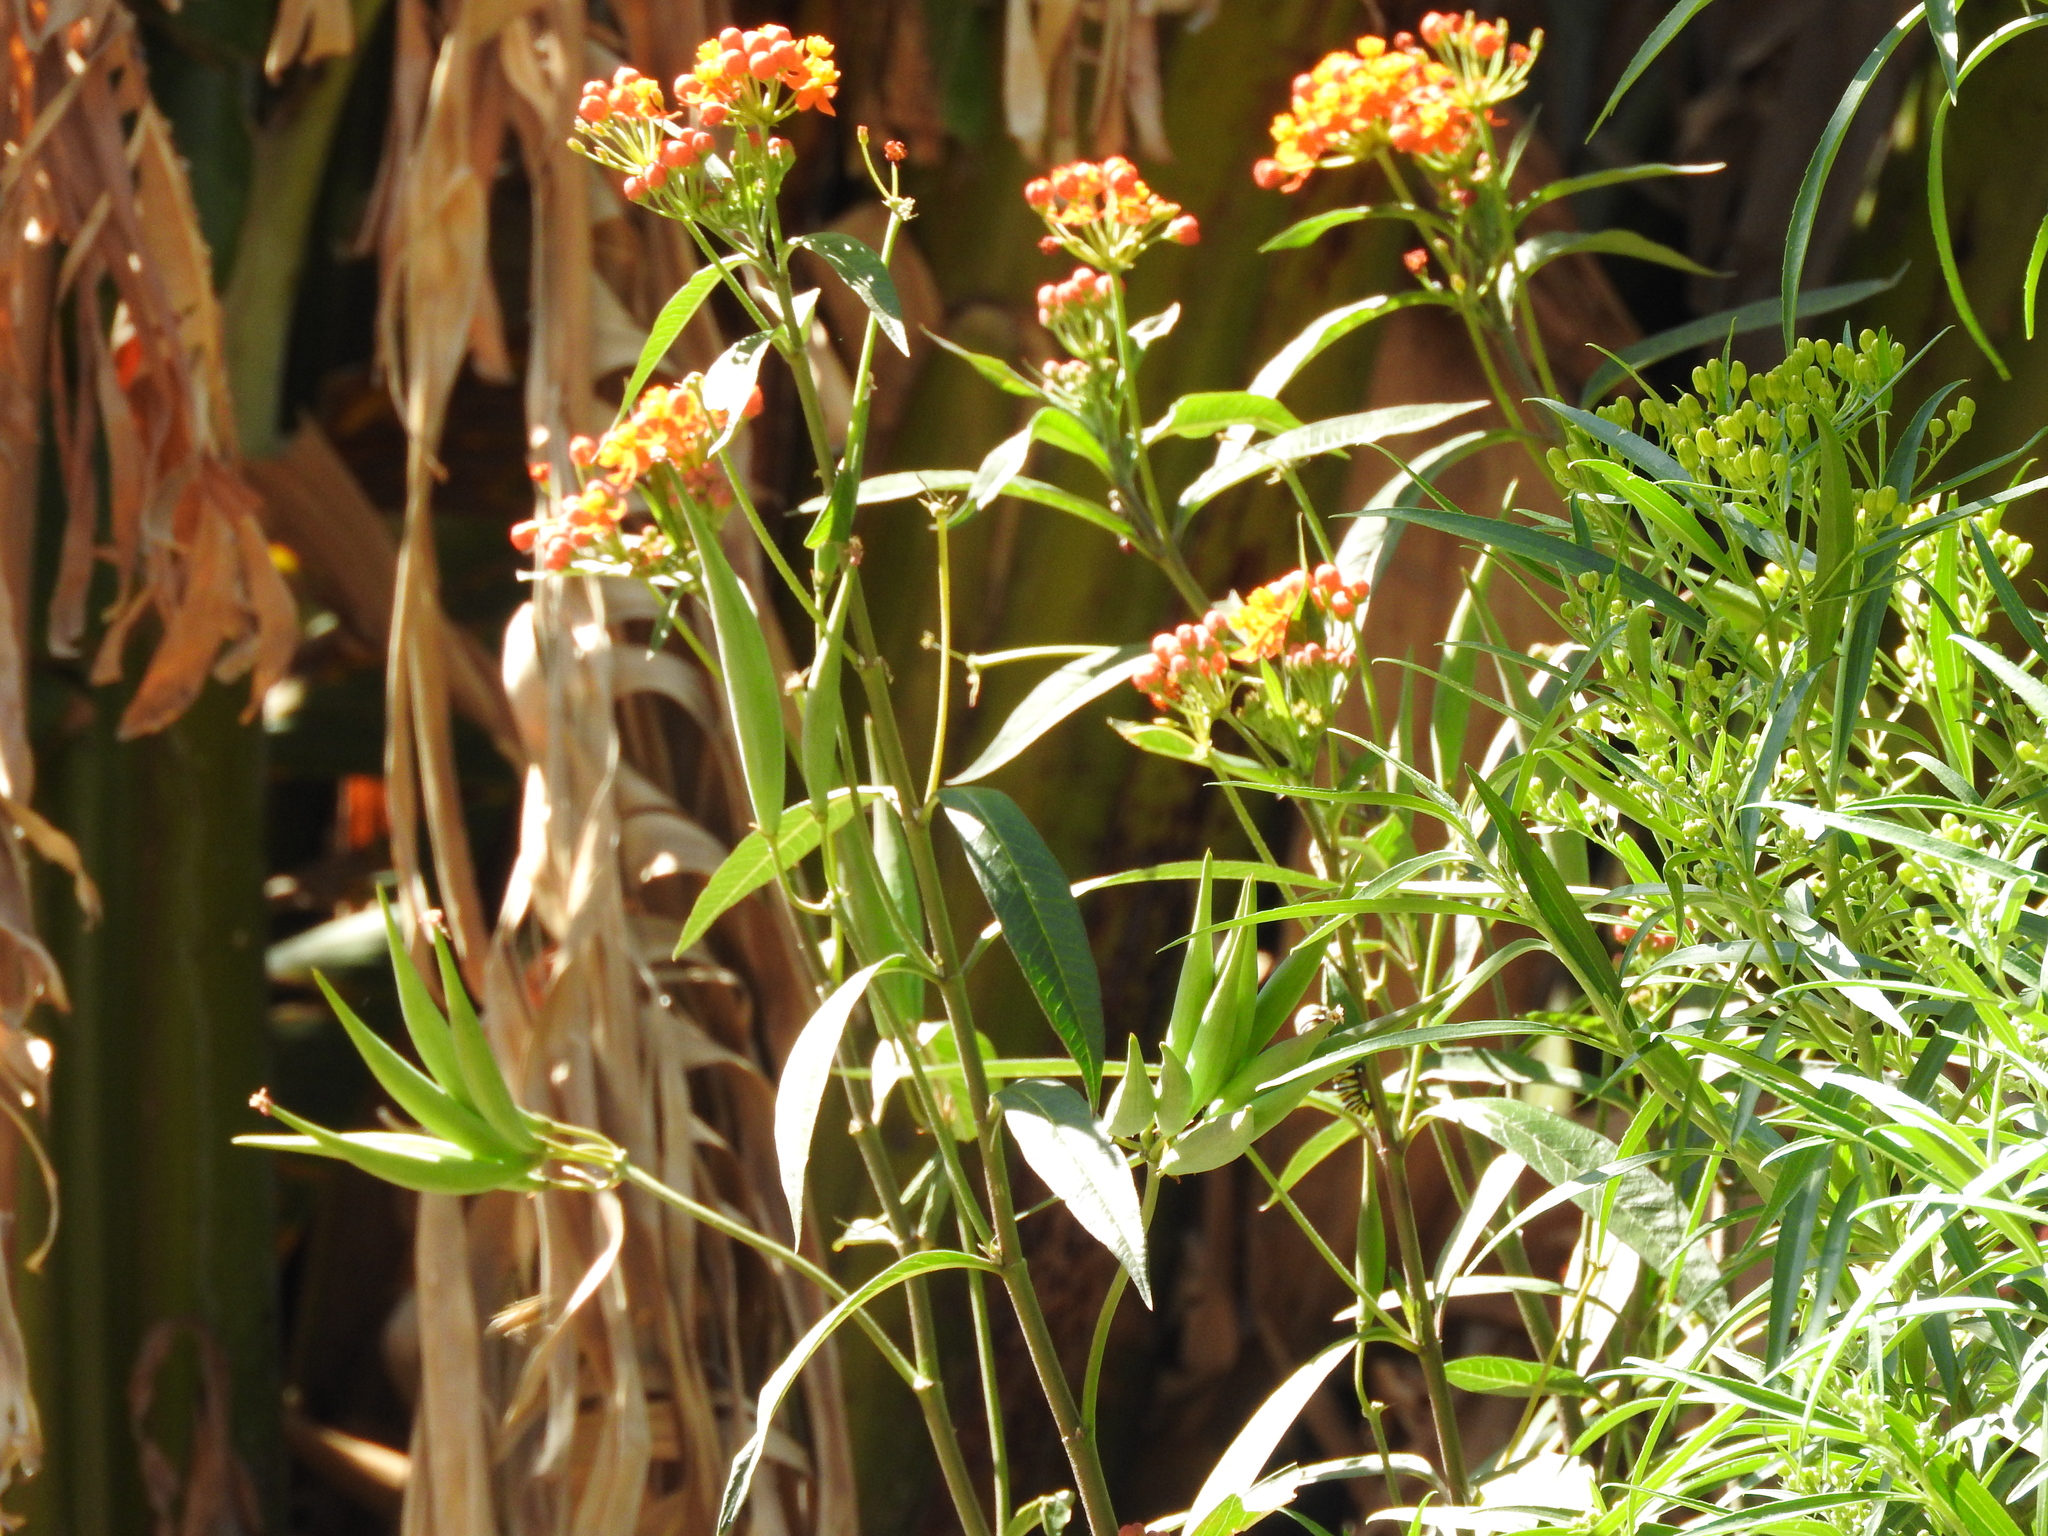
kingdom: Animalia
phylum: Arthropoda
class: Insecta
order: Lepidoptera
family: Nymphalidae
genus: Danaus
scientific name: Danaus plexippus
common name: Monarch
